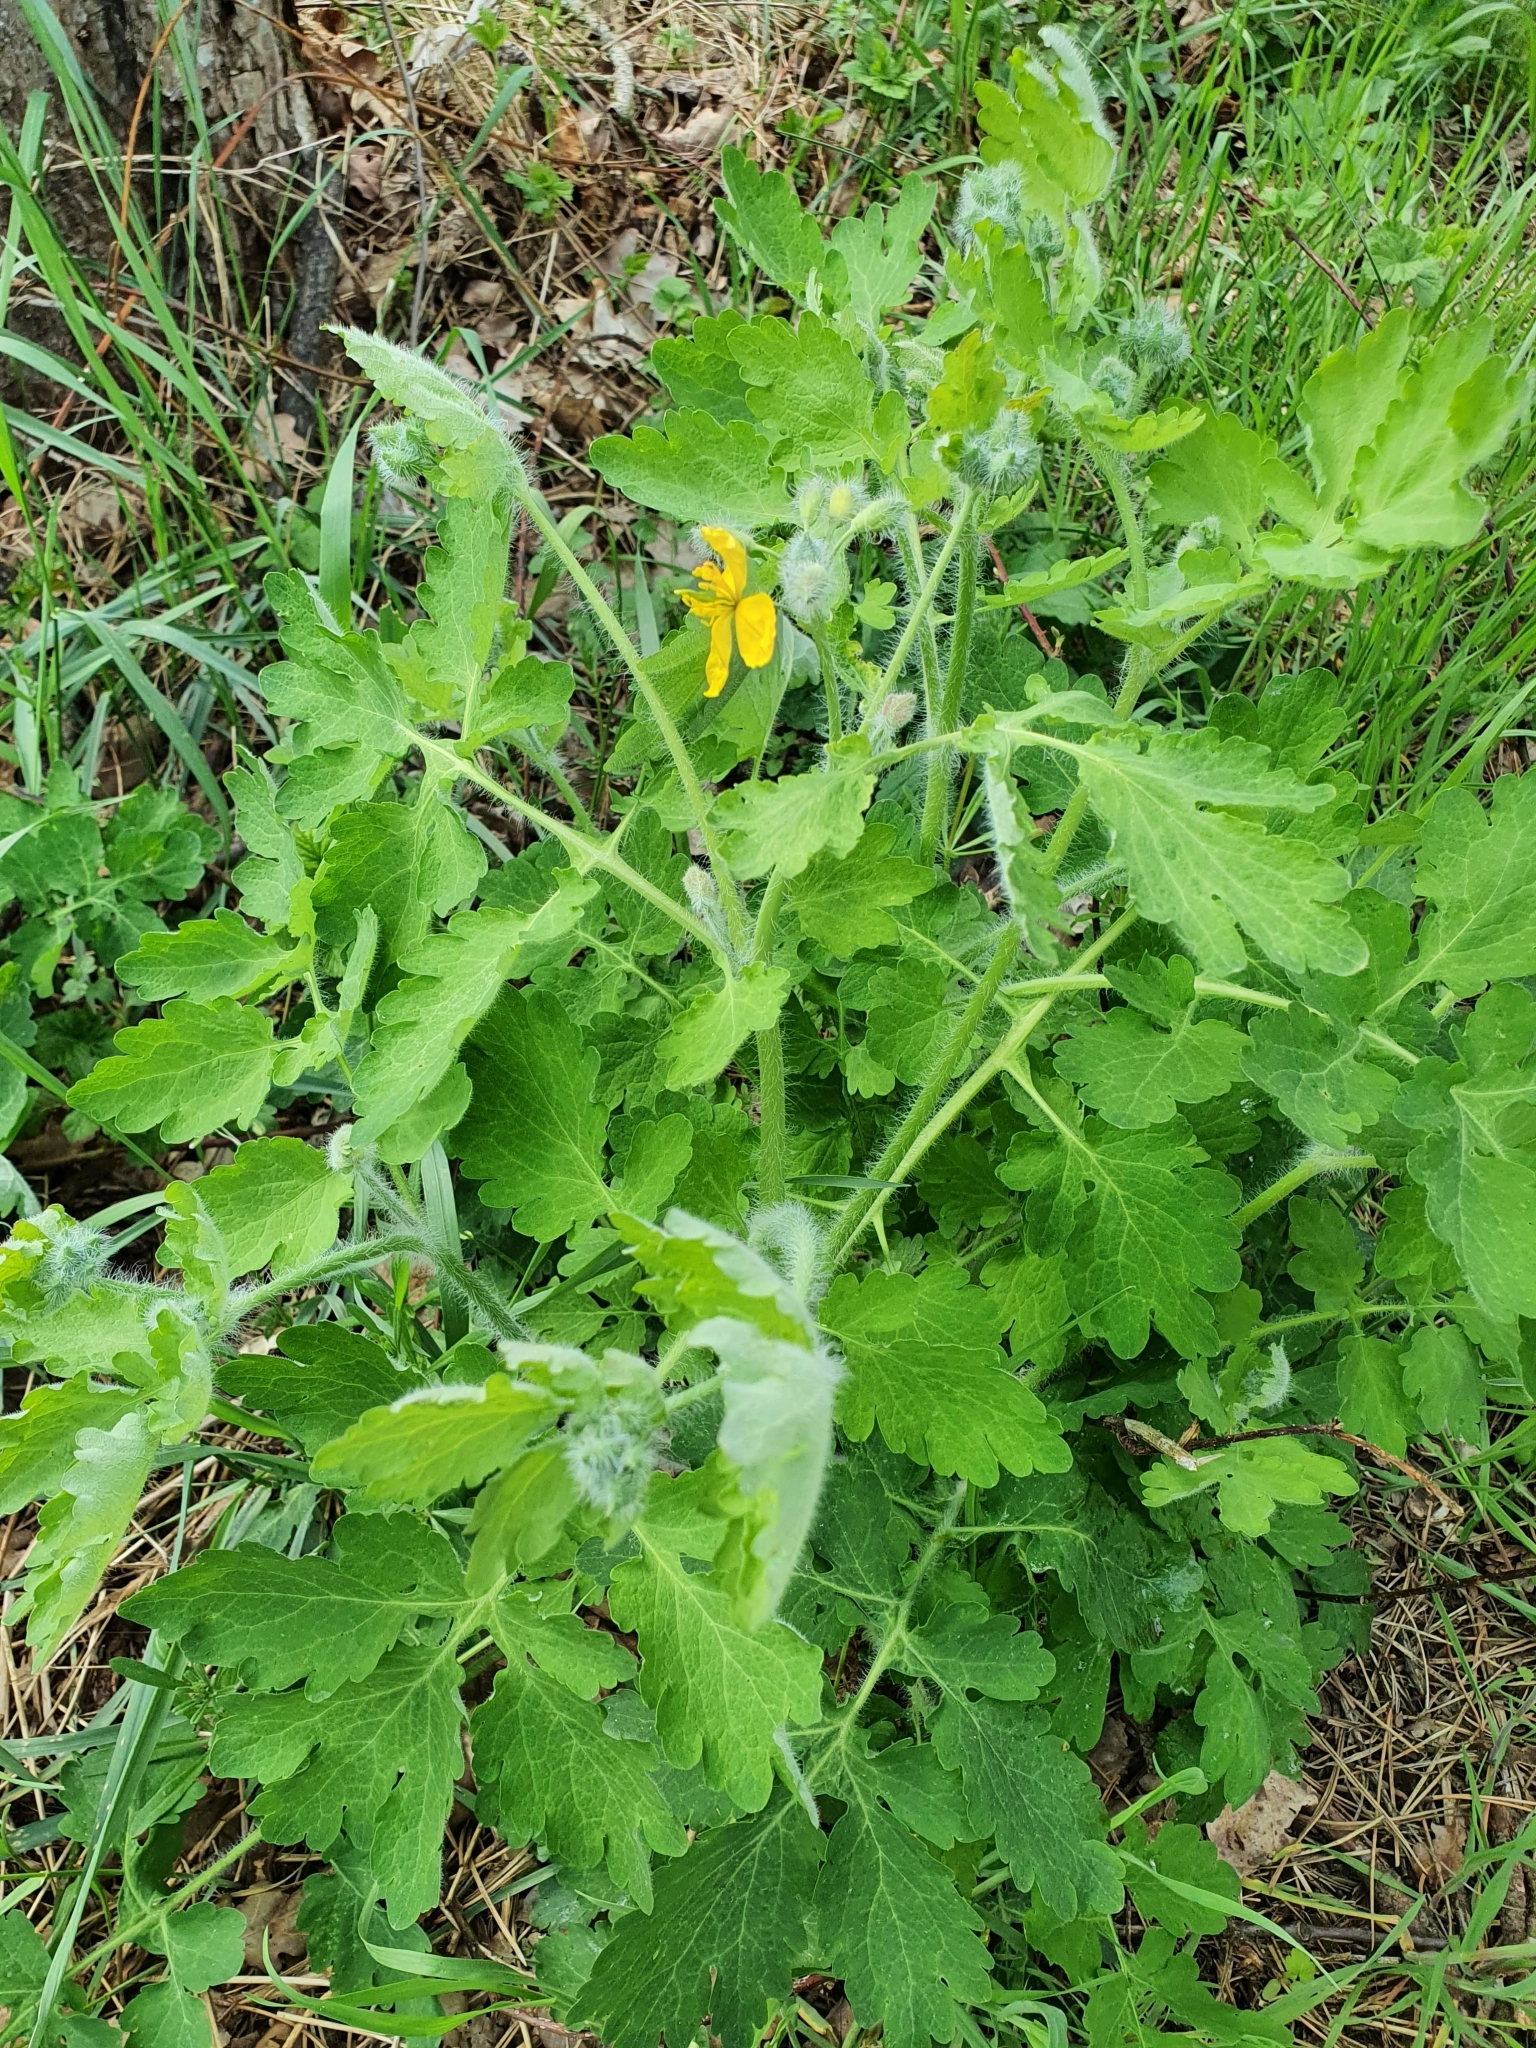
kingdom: Plantae
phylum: Tracheophyta
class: Magnoliopsida
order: Ranunculales
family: Papaveraceae
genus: Chelidonium
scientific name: Chelidonium majus
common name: Greater celandine
